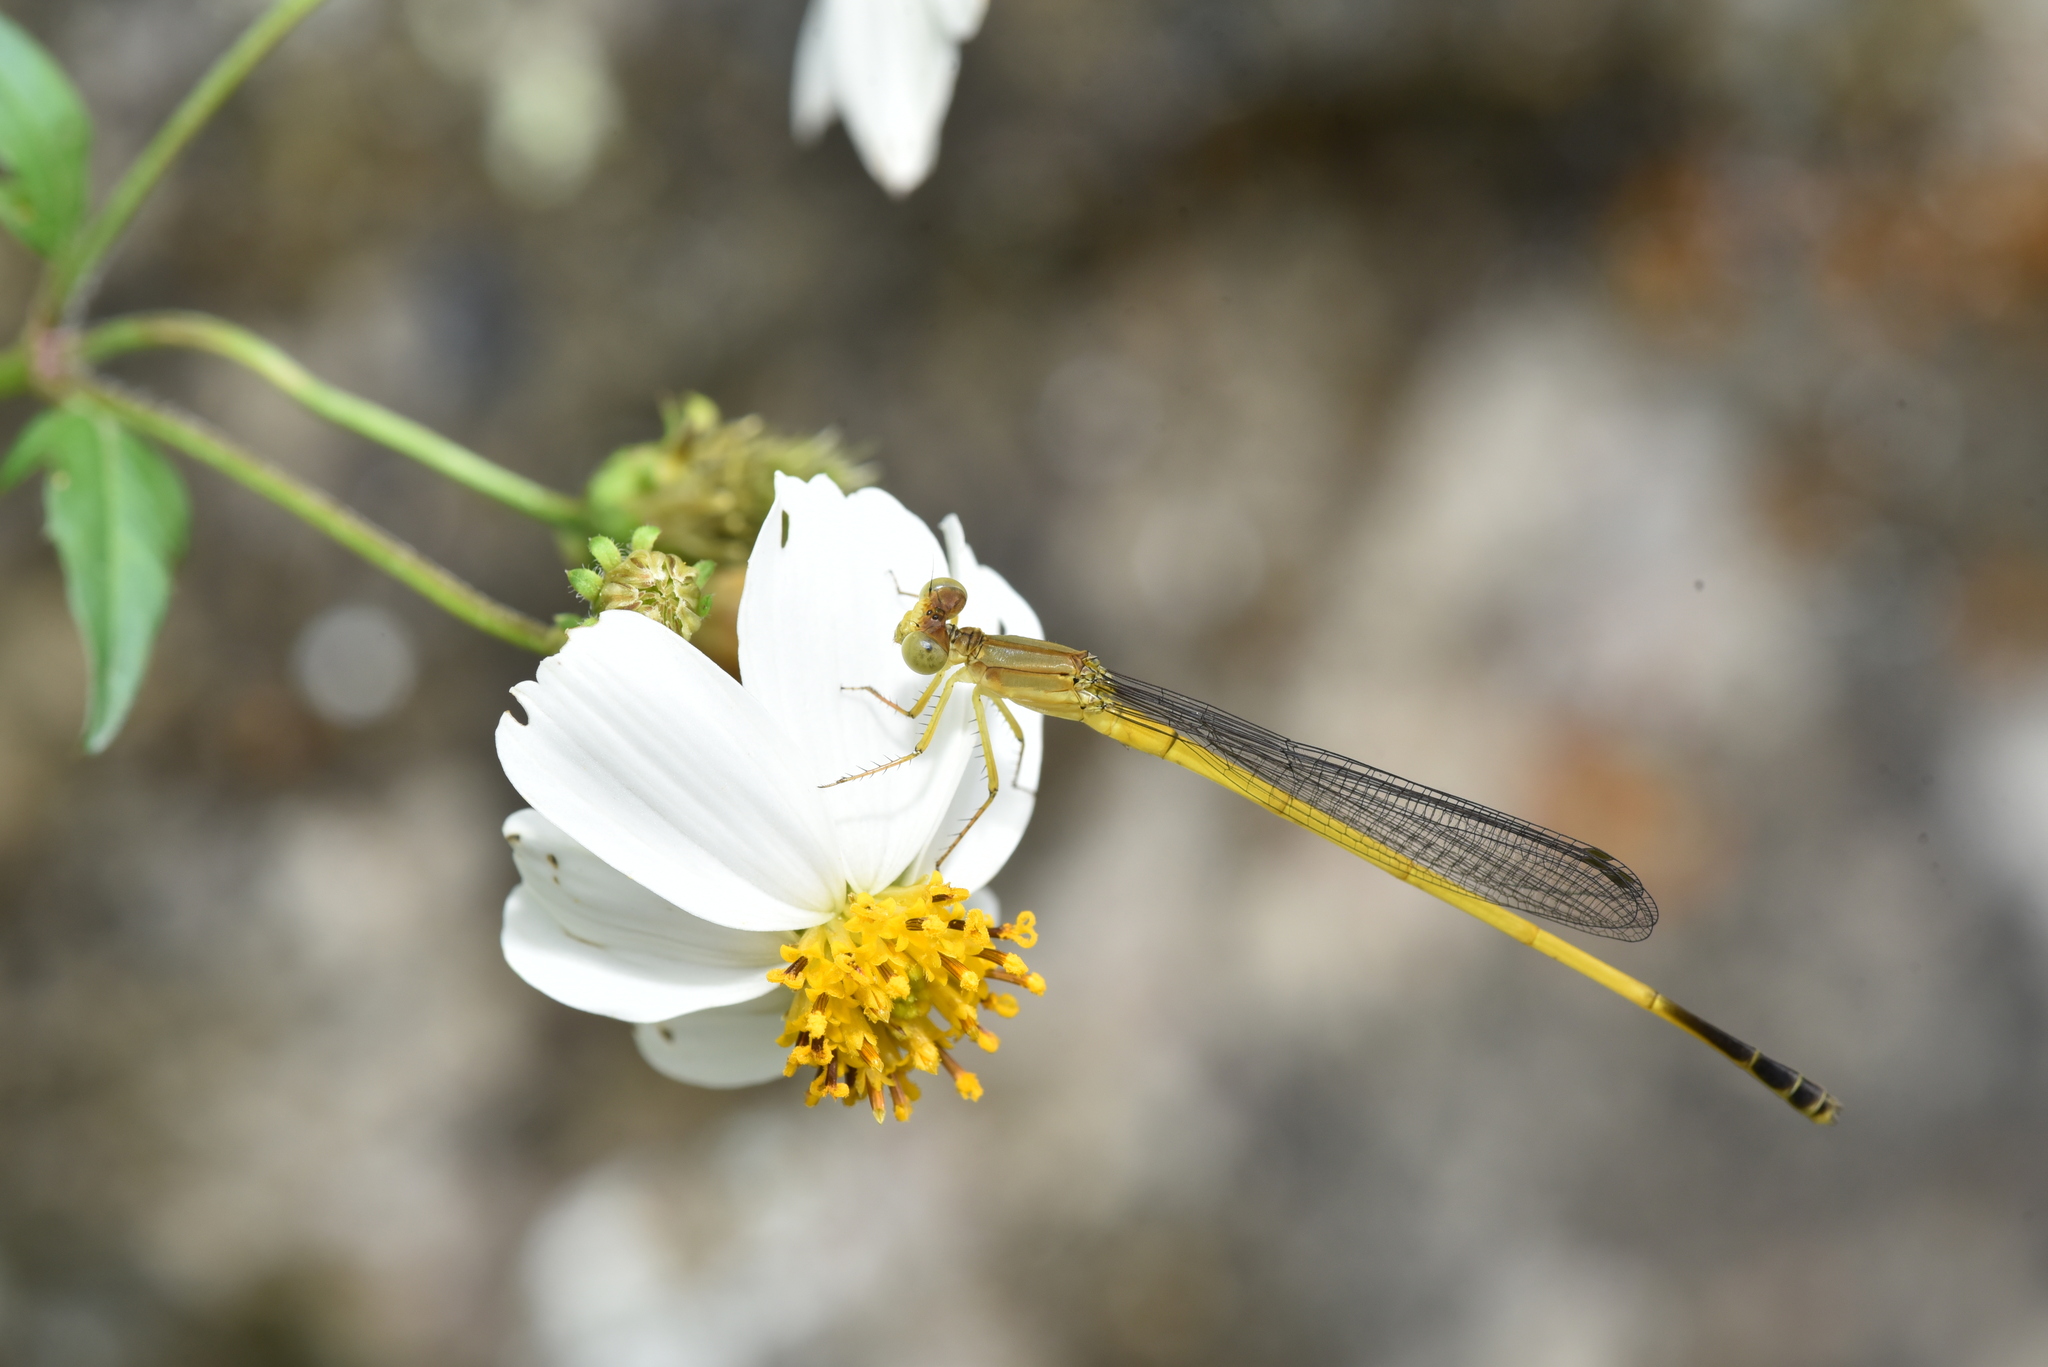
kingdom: Animalia
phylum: Arthropoda
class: Insecta
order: Odonata
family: Coenagrionidae
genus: Ceriagrion
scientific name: Ceriagrion fallax
